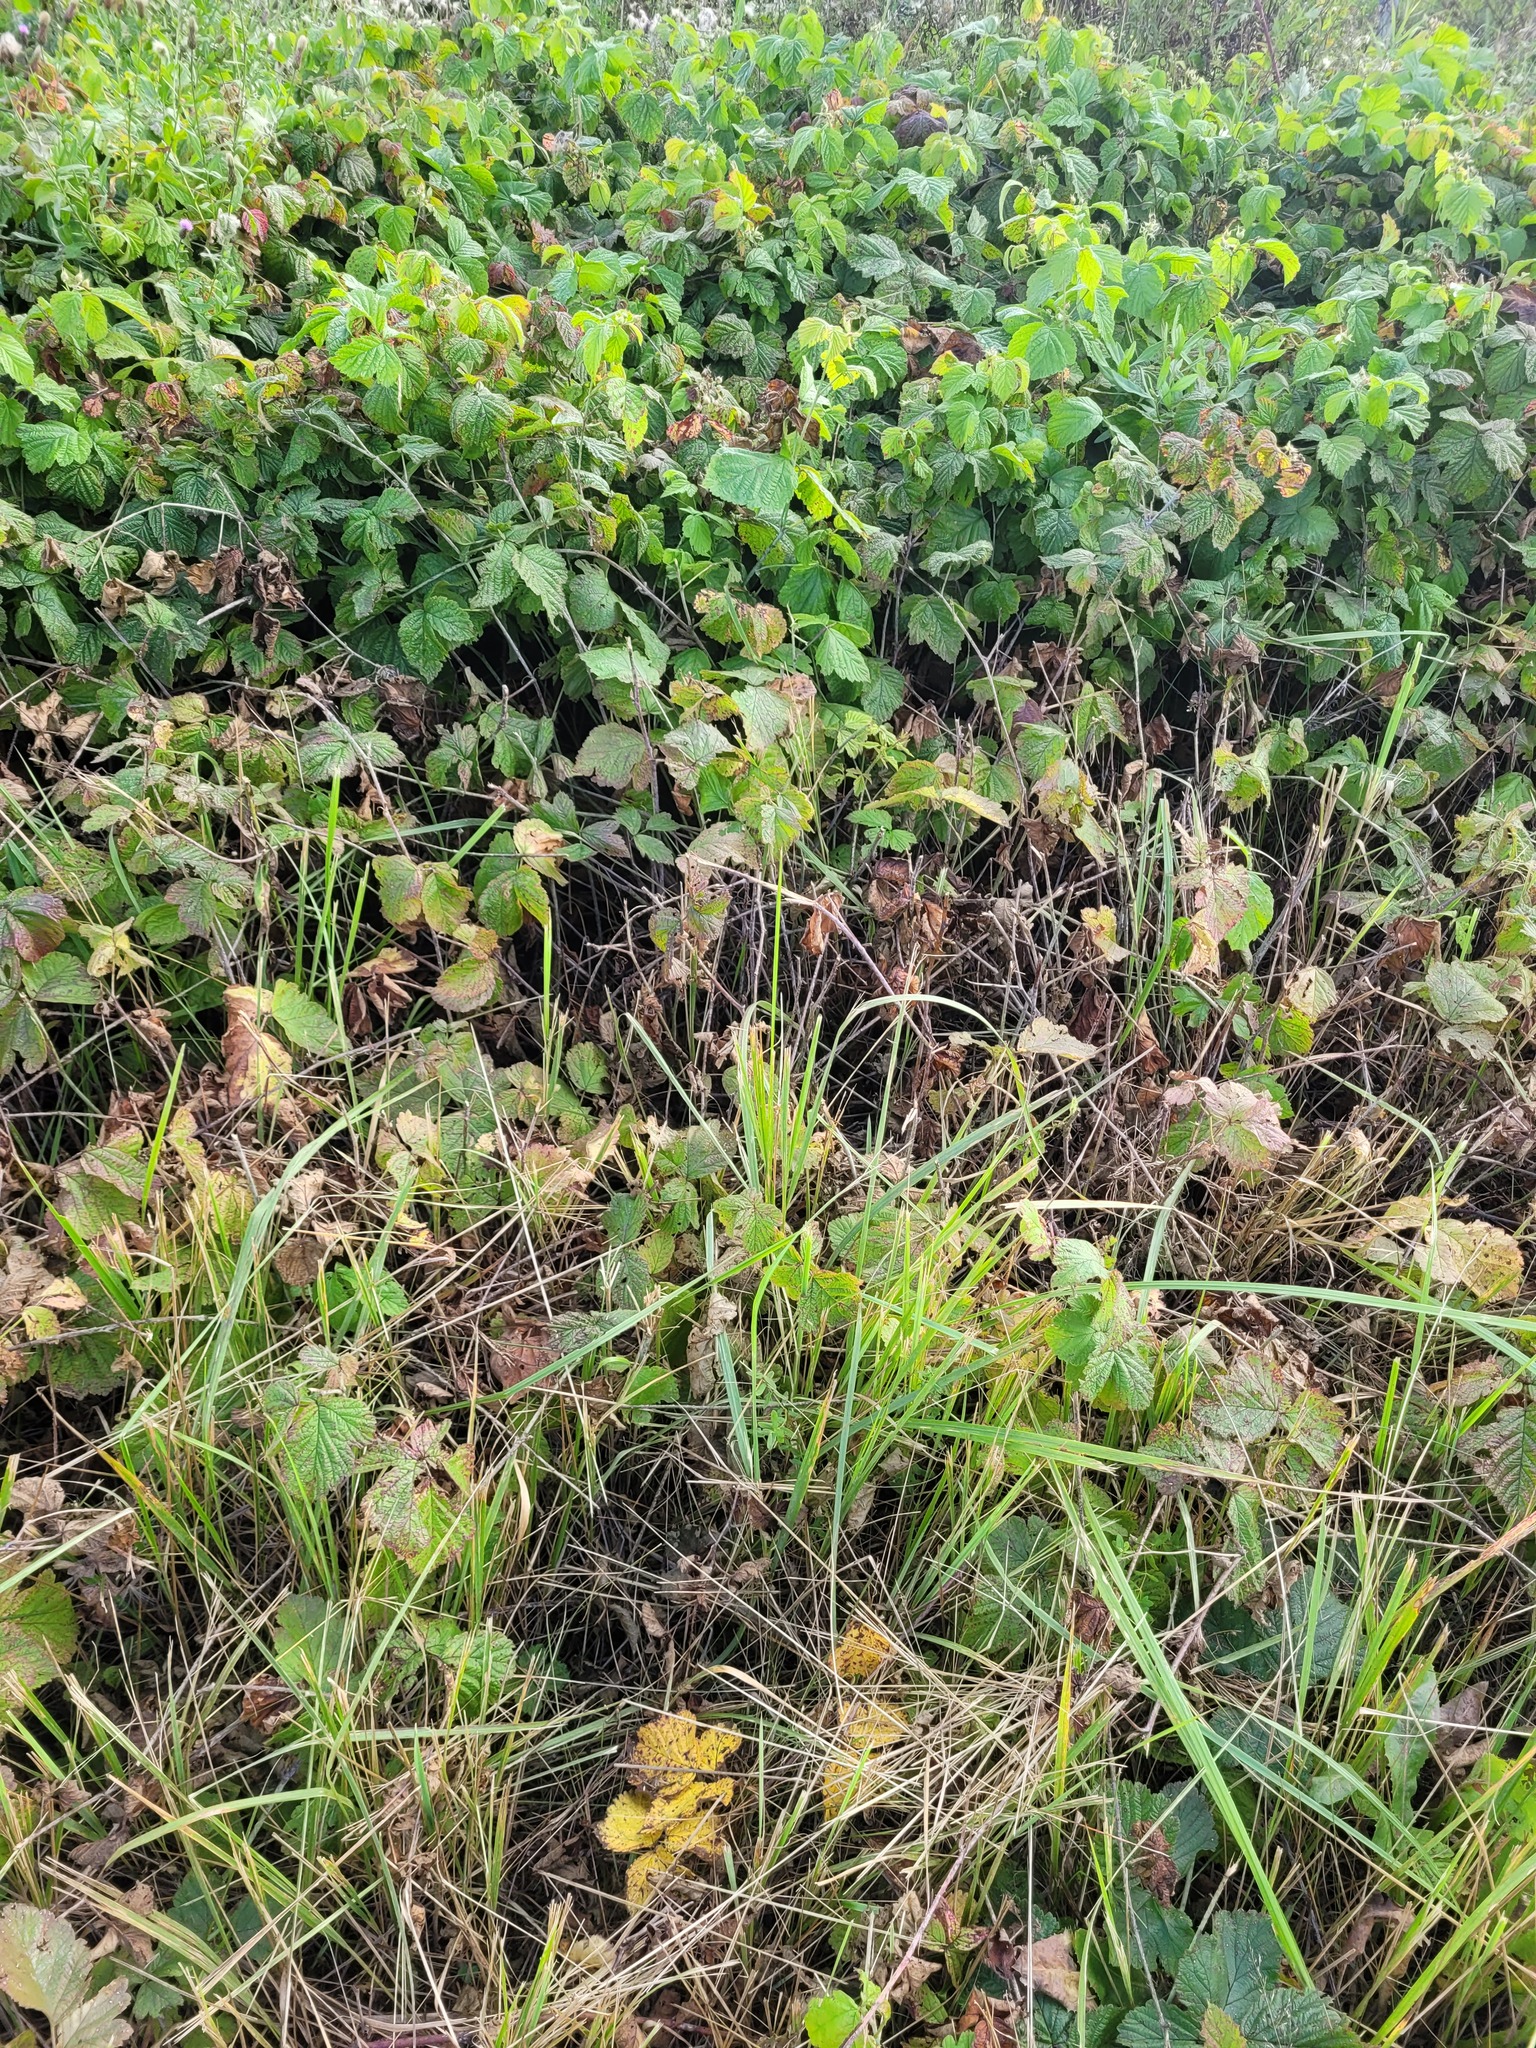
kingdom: Plantae
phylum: Tracheophyta
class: Magnoliopsida
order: Rosales
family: Rosaceae
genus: Rubus
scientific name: Rubus caesius
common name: Dewberry
